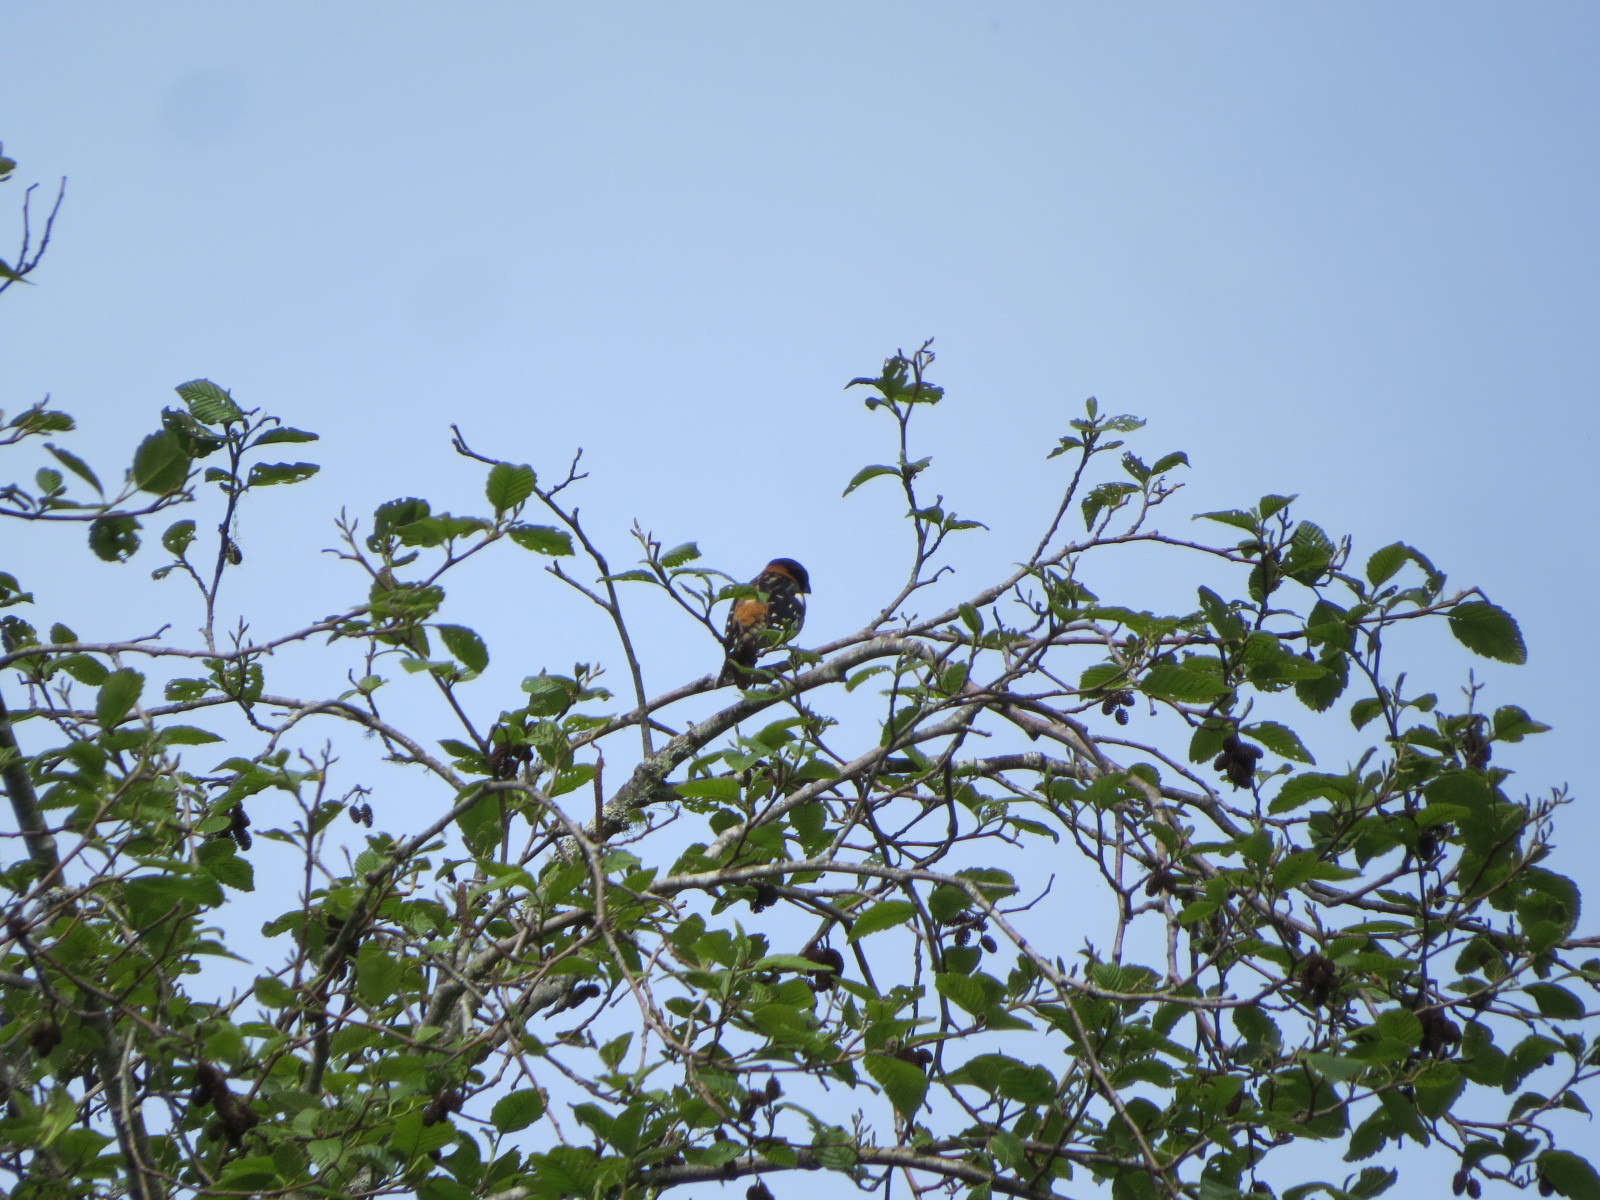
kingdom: Animalia
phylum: Chordata
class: Aves
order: Passeriformes
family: Cardinalidae
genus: Pheucticus
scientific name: Pheucticus melanocephalus
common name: Black-headed grosbeak
